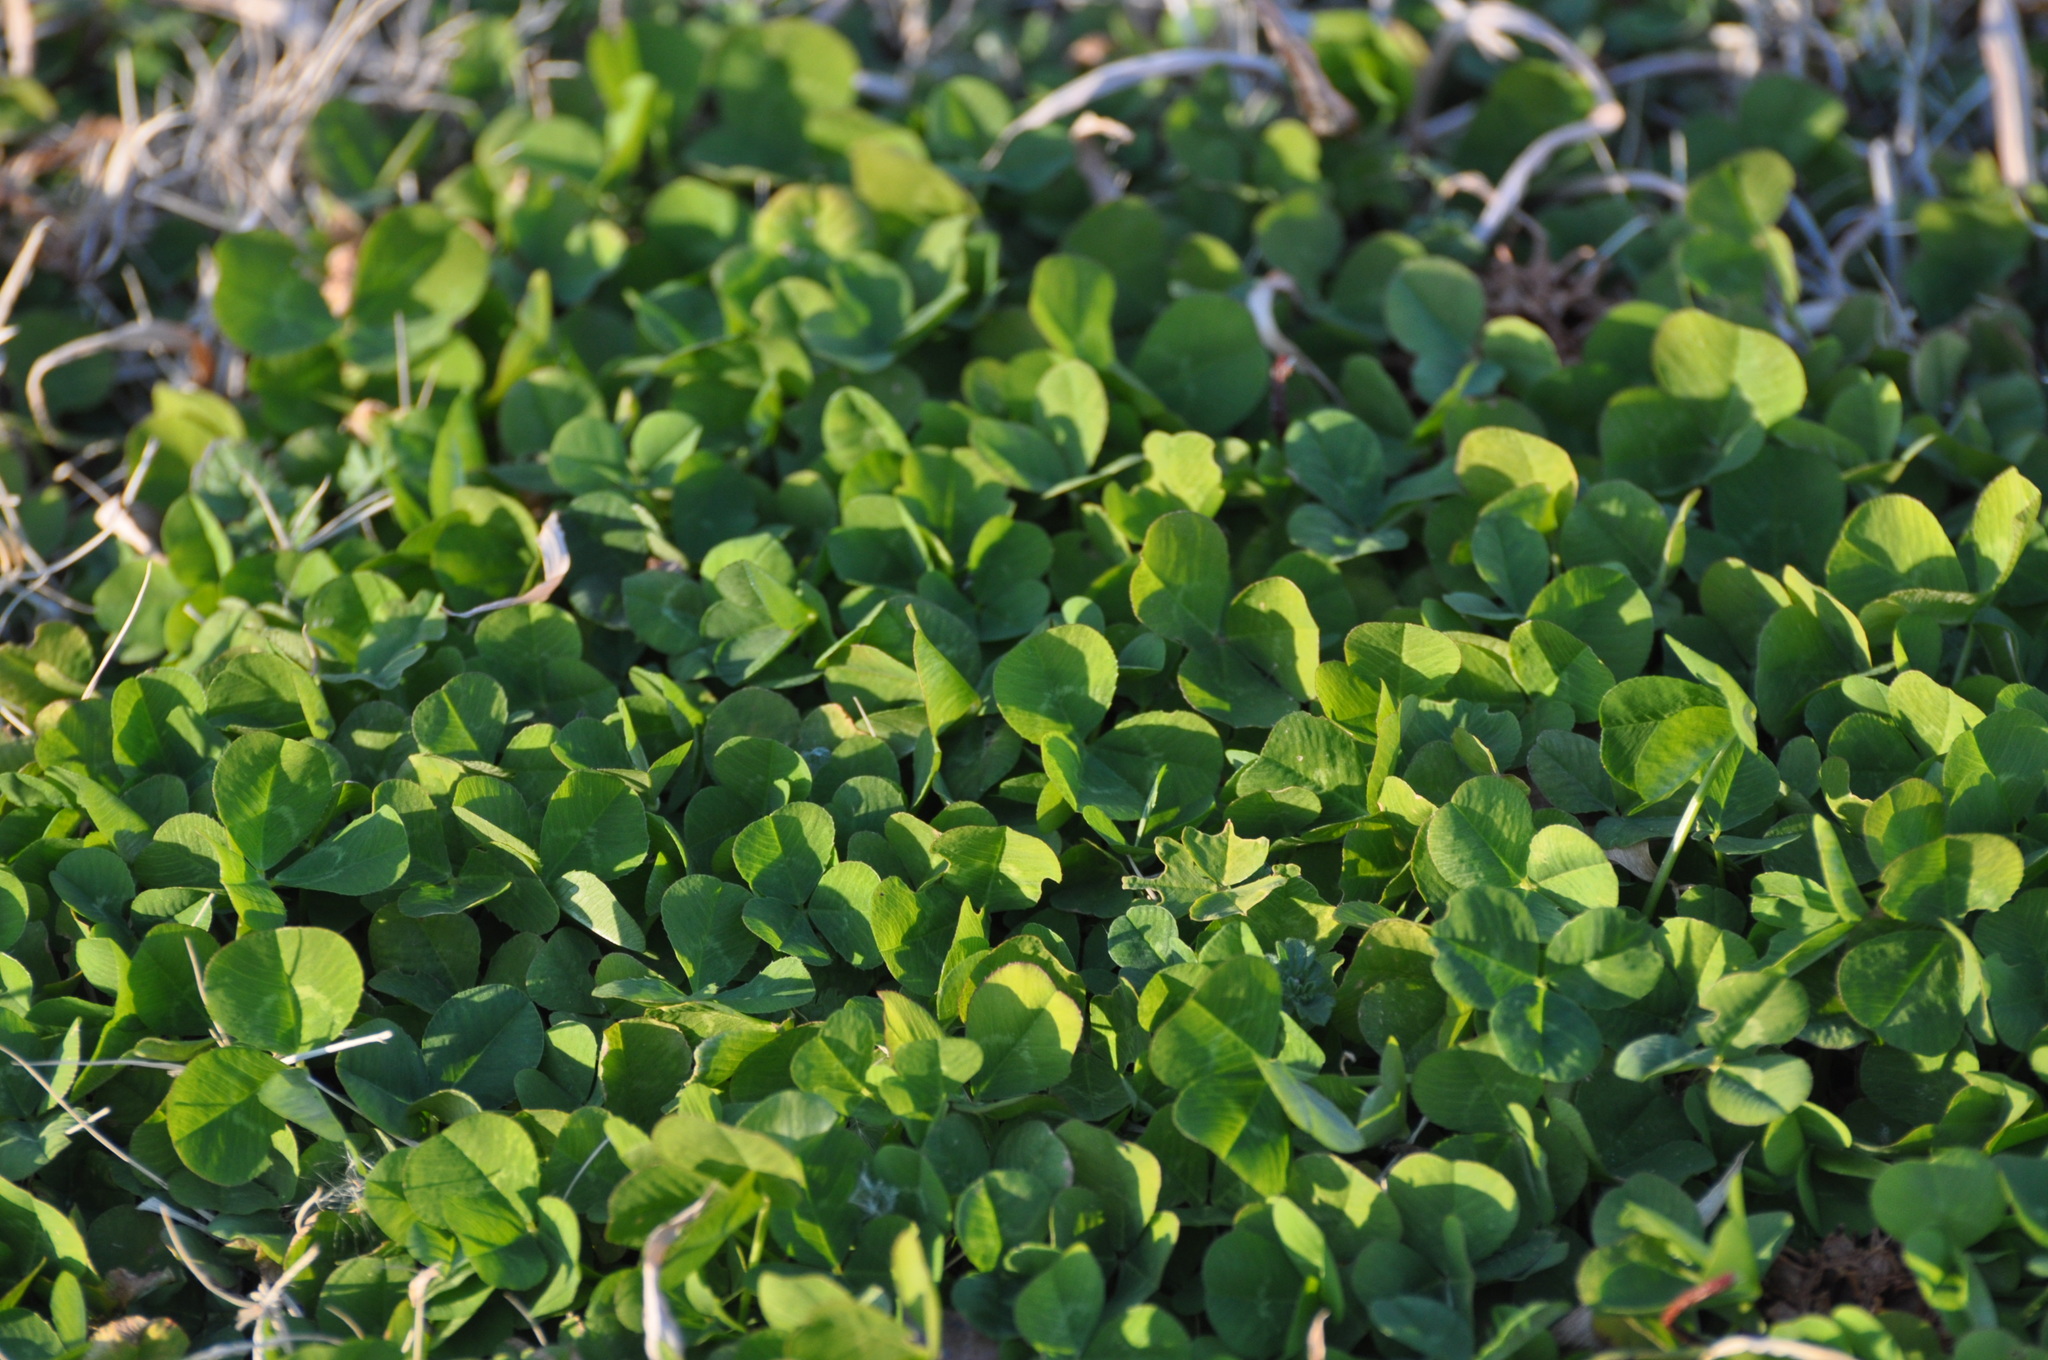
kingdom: Plantae
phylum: Tracheophyta
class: Magnoliopsida
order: Fabales
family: Fabaceae
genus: Trifolium
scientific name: Trifolium repens
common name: White clover
